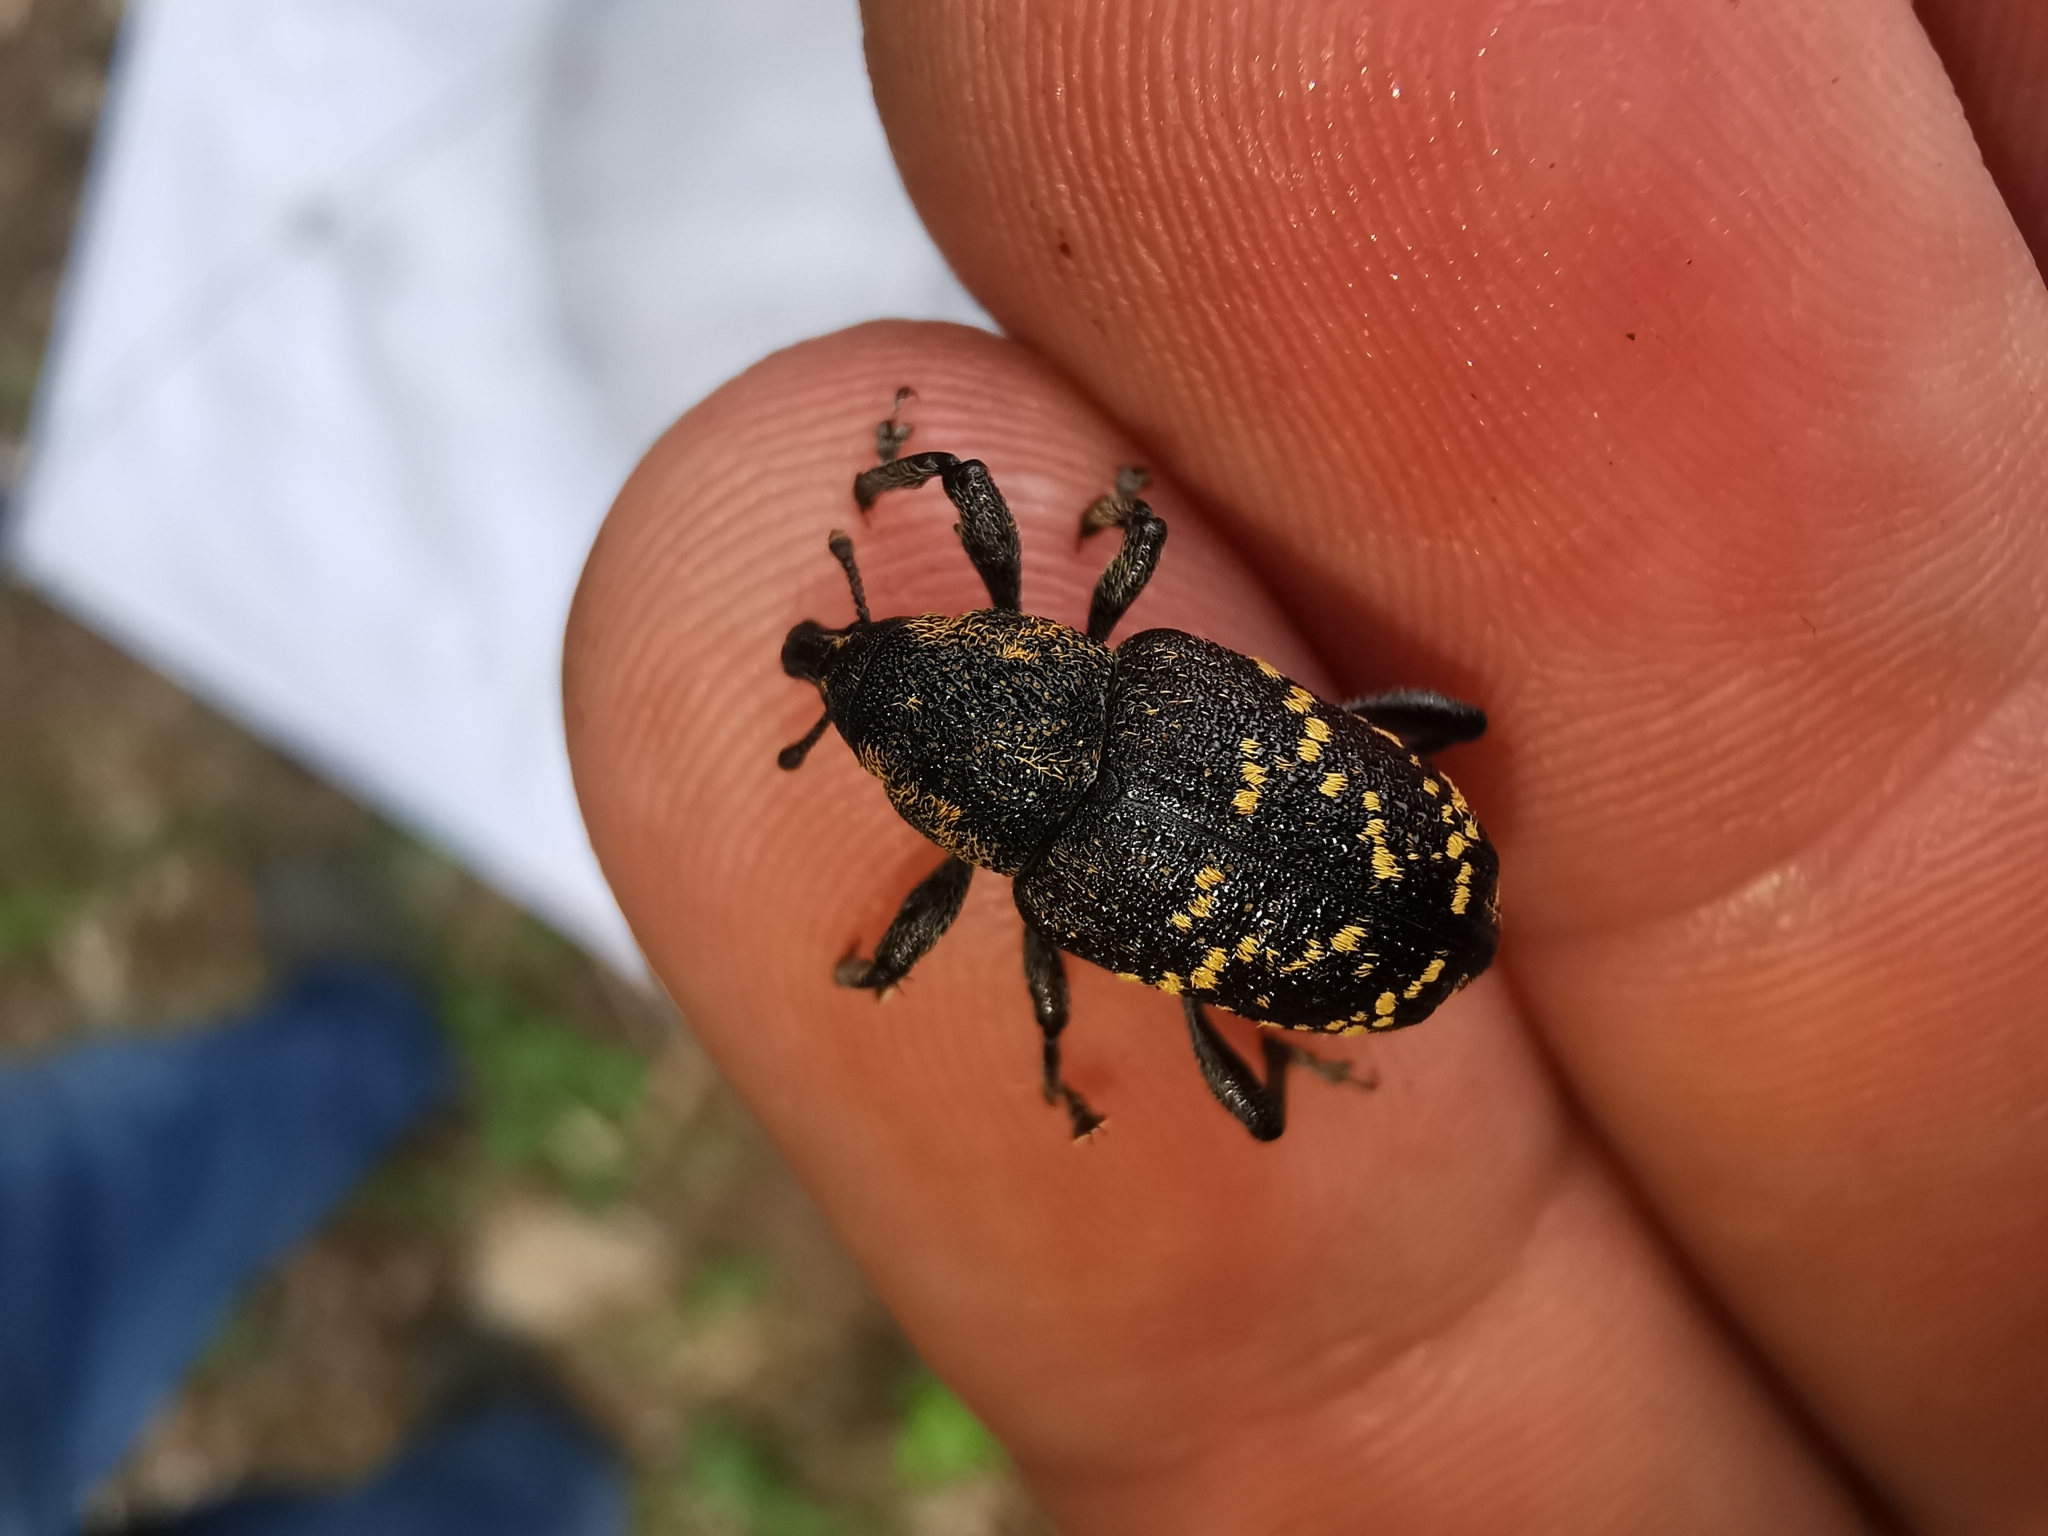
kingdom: Animalia
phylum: Arthropoda
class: Insecta
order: Coleoptera
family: Curculionidae
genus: Hylobius
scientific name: Hylobius abietis
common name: Large pine weevil
